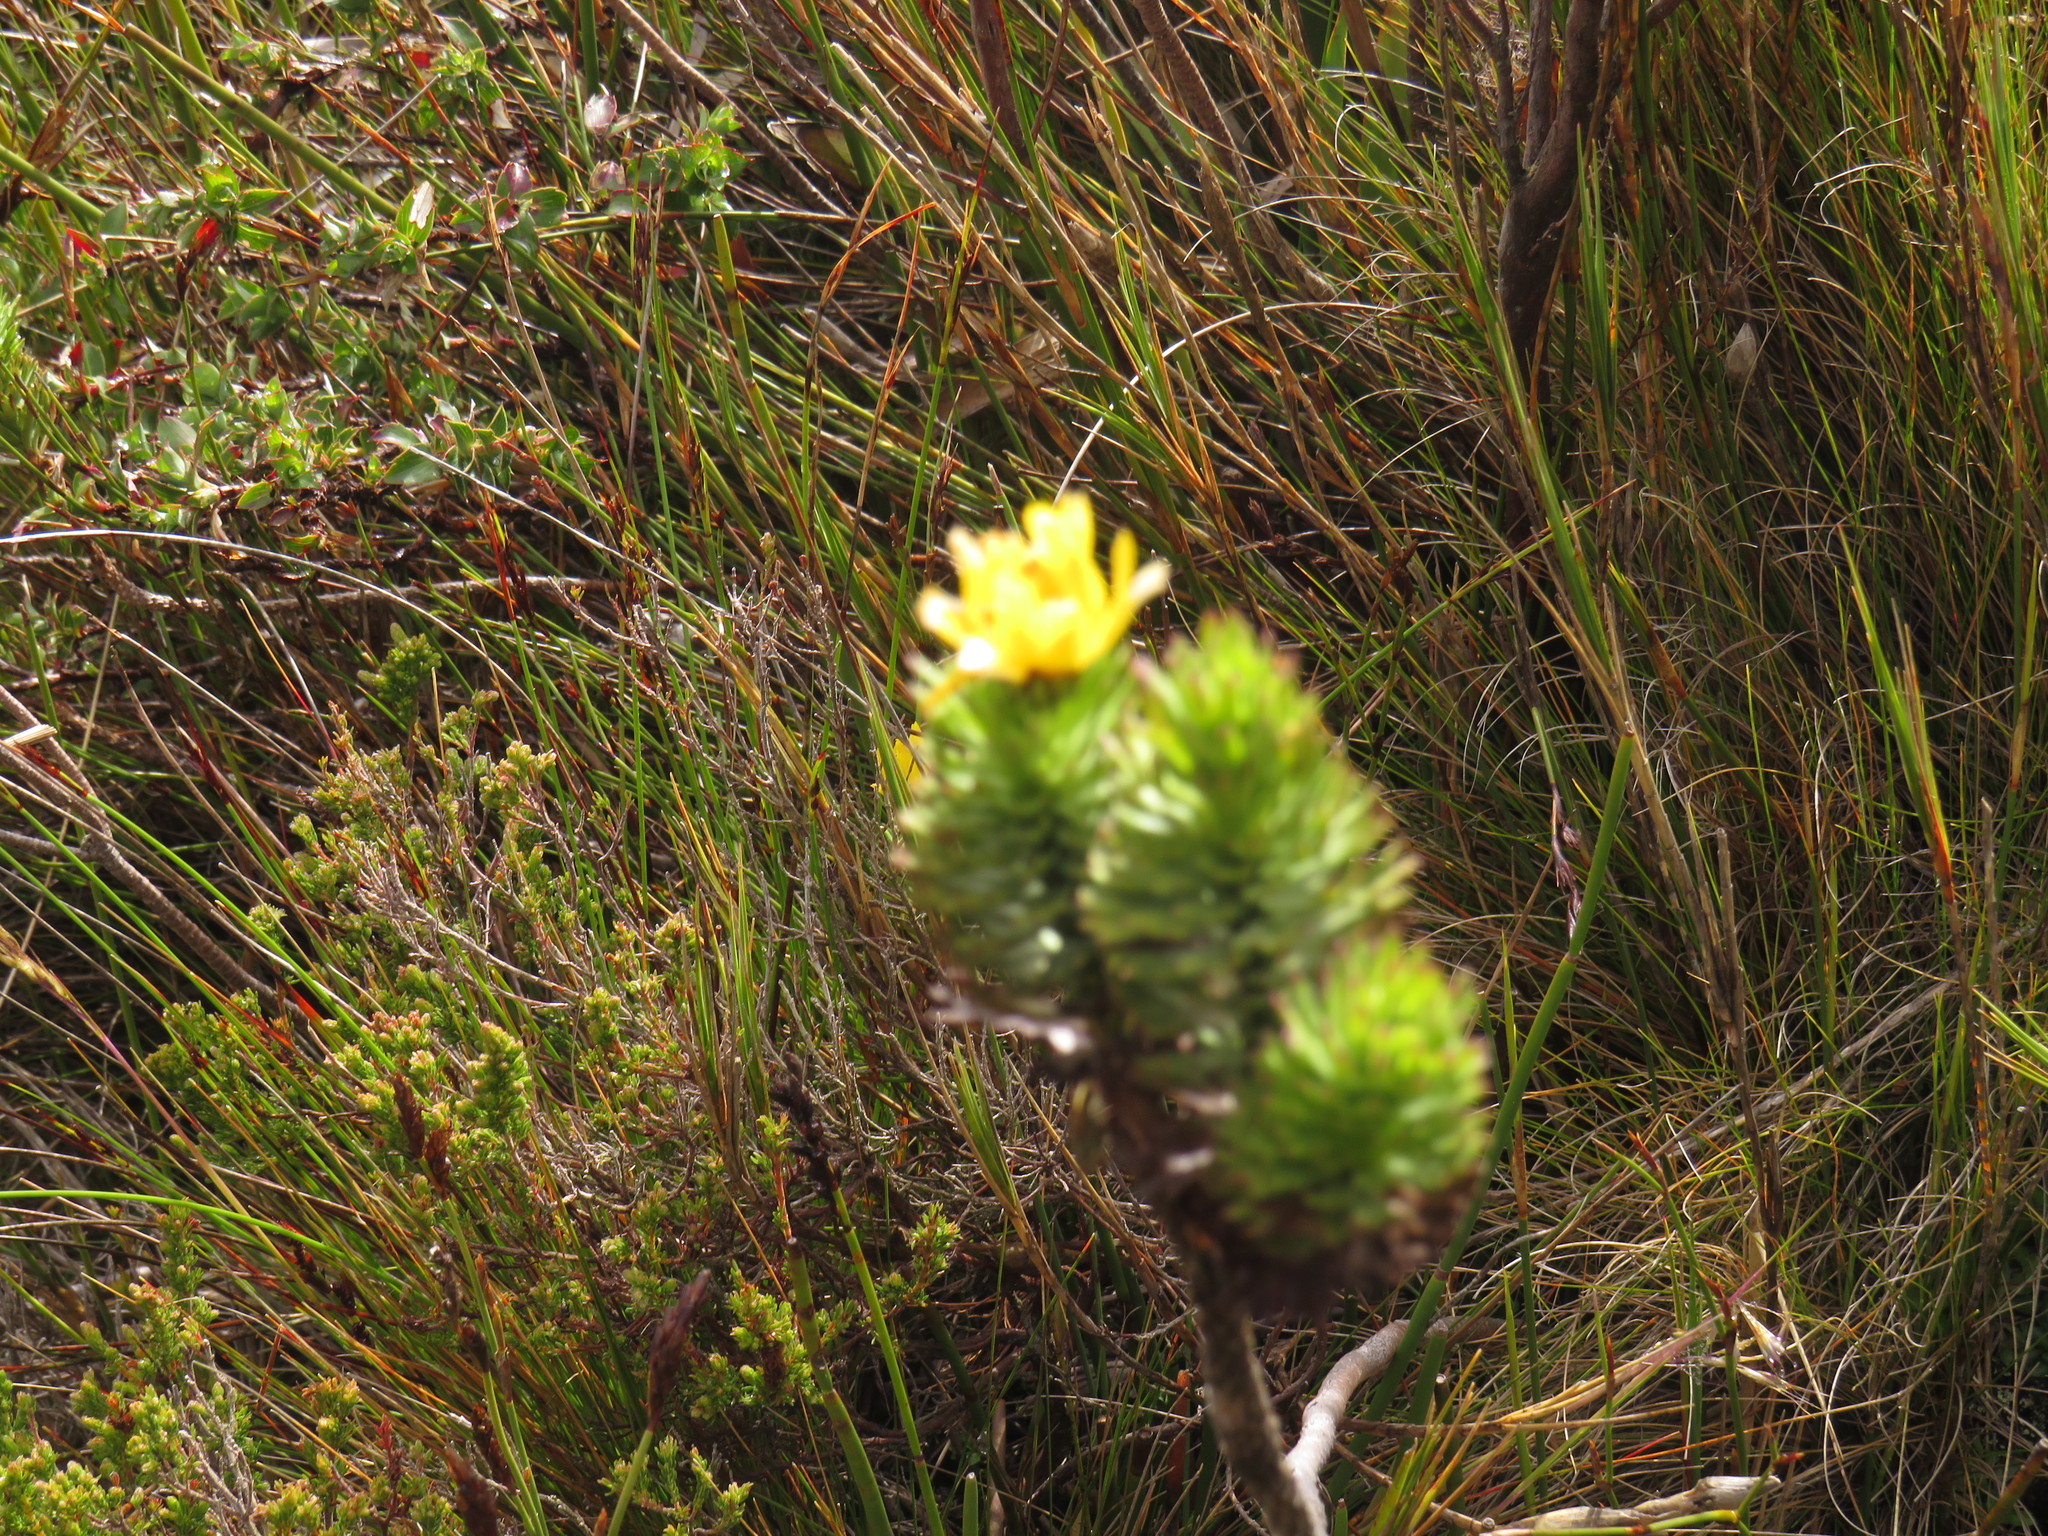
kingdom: Plantae
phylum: Tracheophyta
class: Magnoliopsida
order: Asterales
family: Asteraceae
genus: Ursinia
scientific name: Ursinia caledonica
